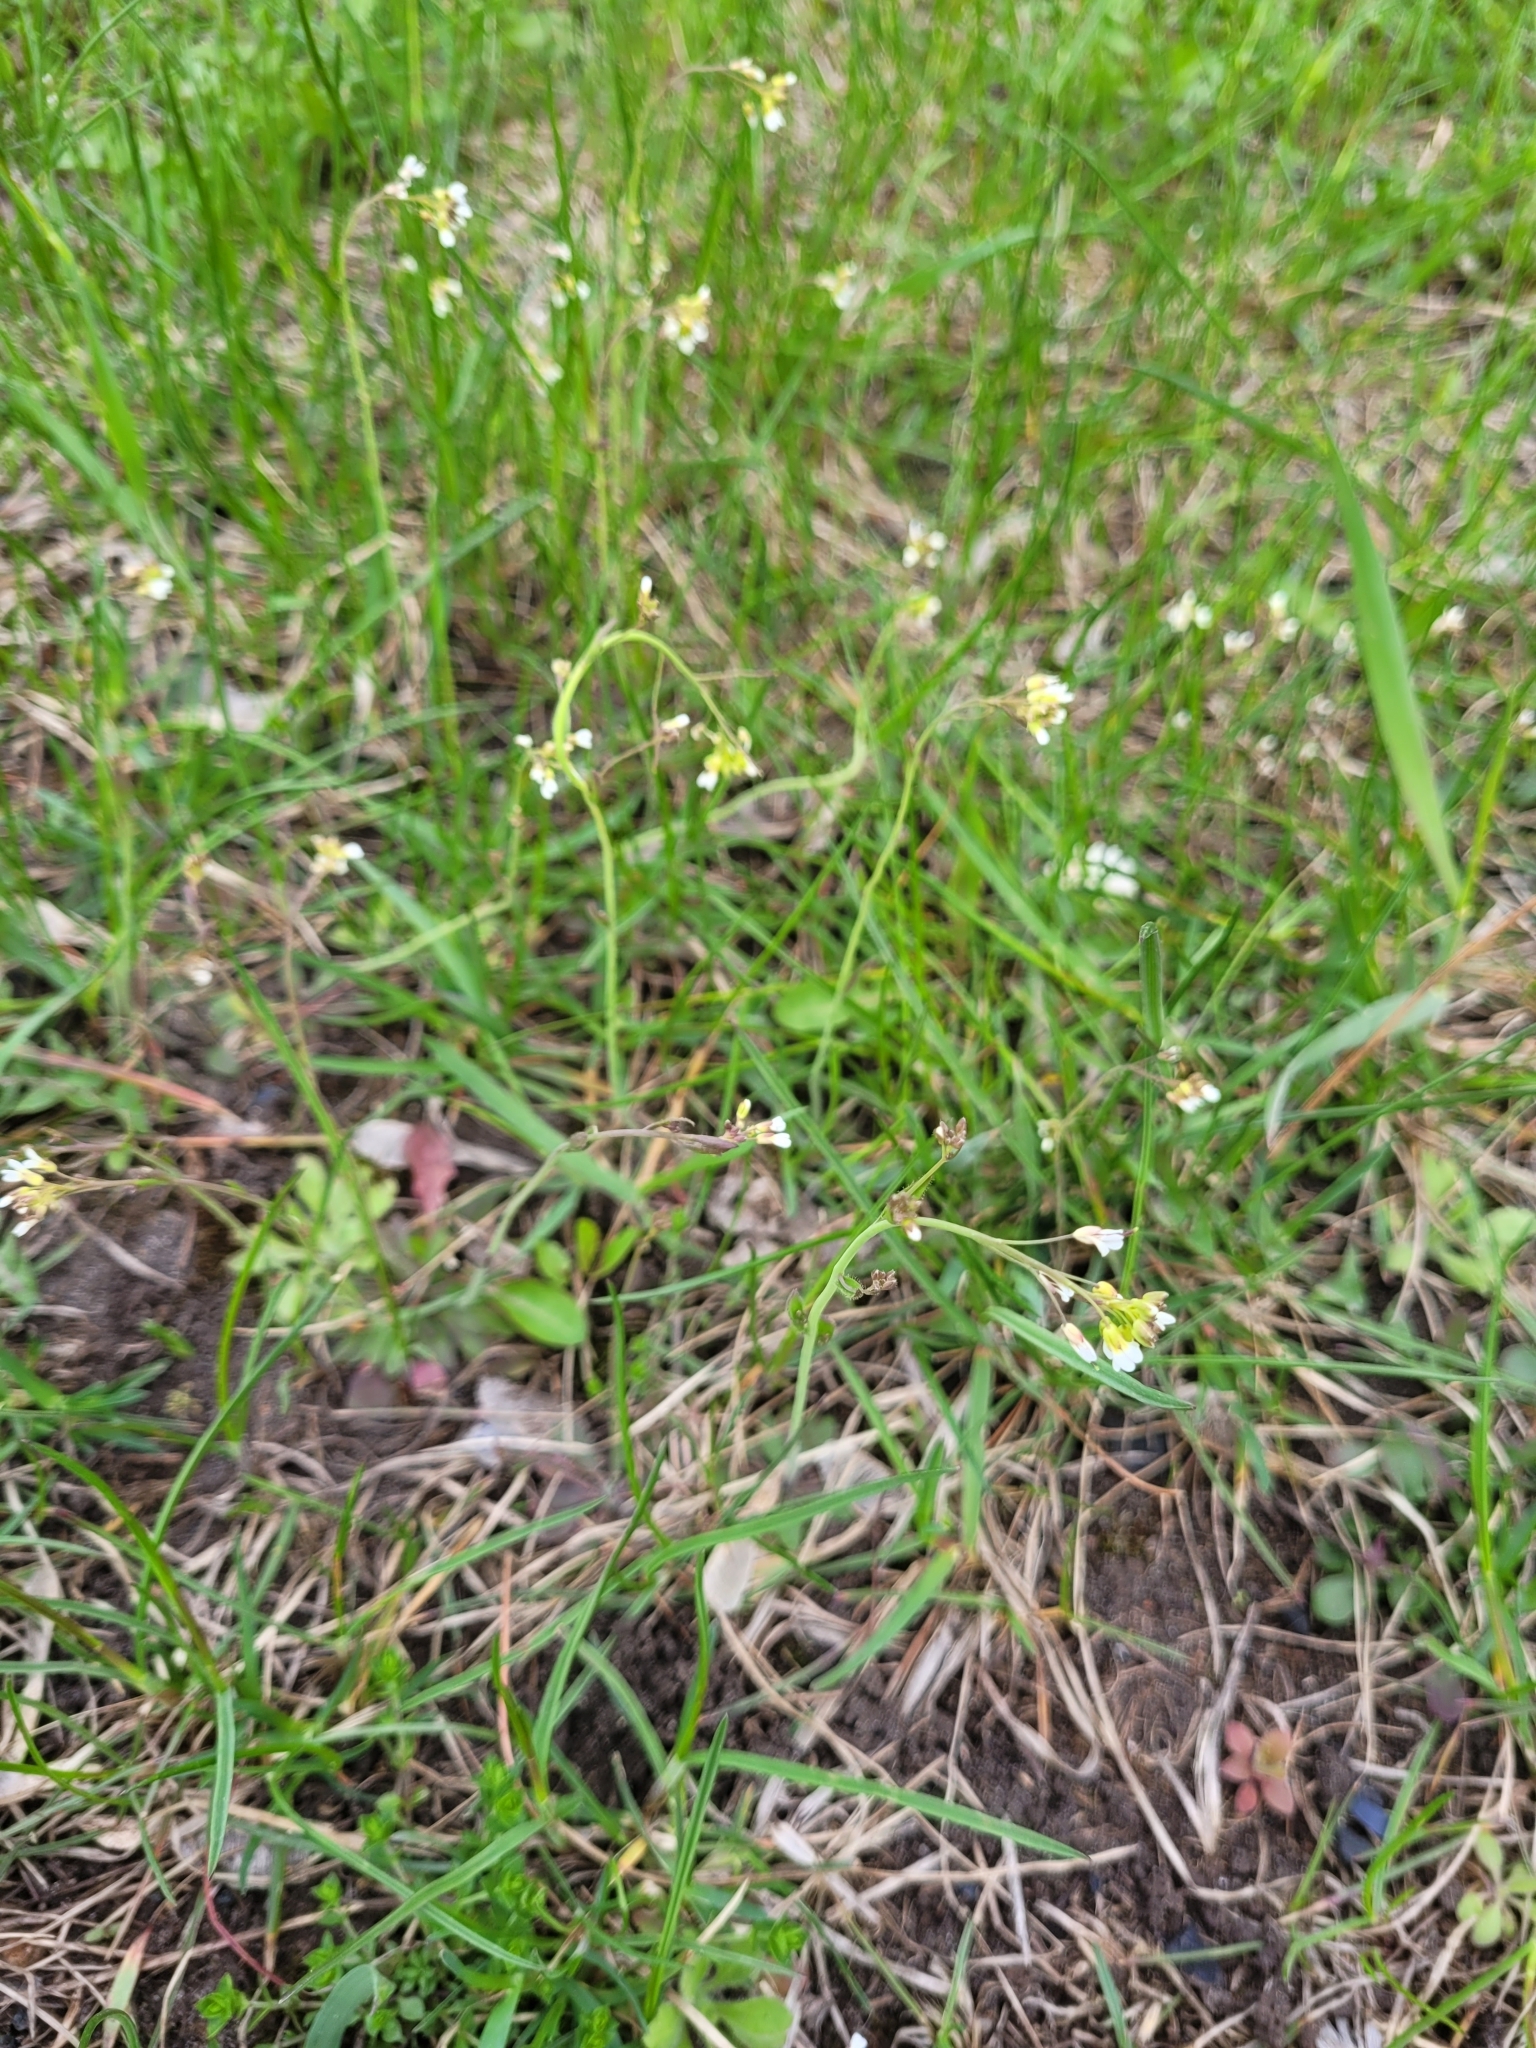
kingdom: Plantae
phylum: Tracheophyta
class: Magnoliopsida
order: Brassicales
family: Brassicaceae
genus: Arabidopsis
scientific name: Arabidopsis thaliana
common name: Thale cress
